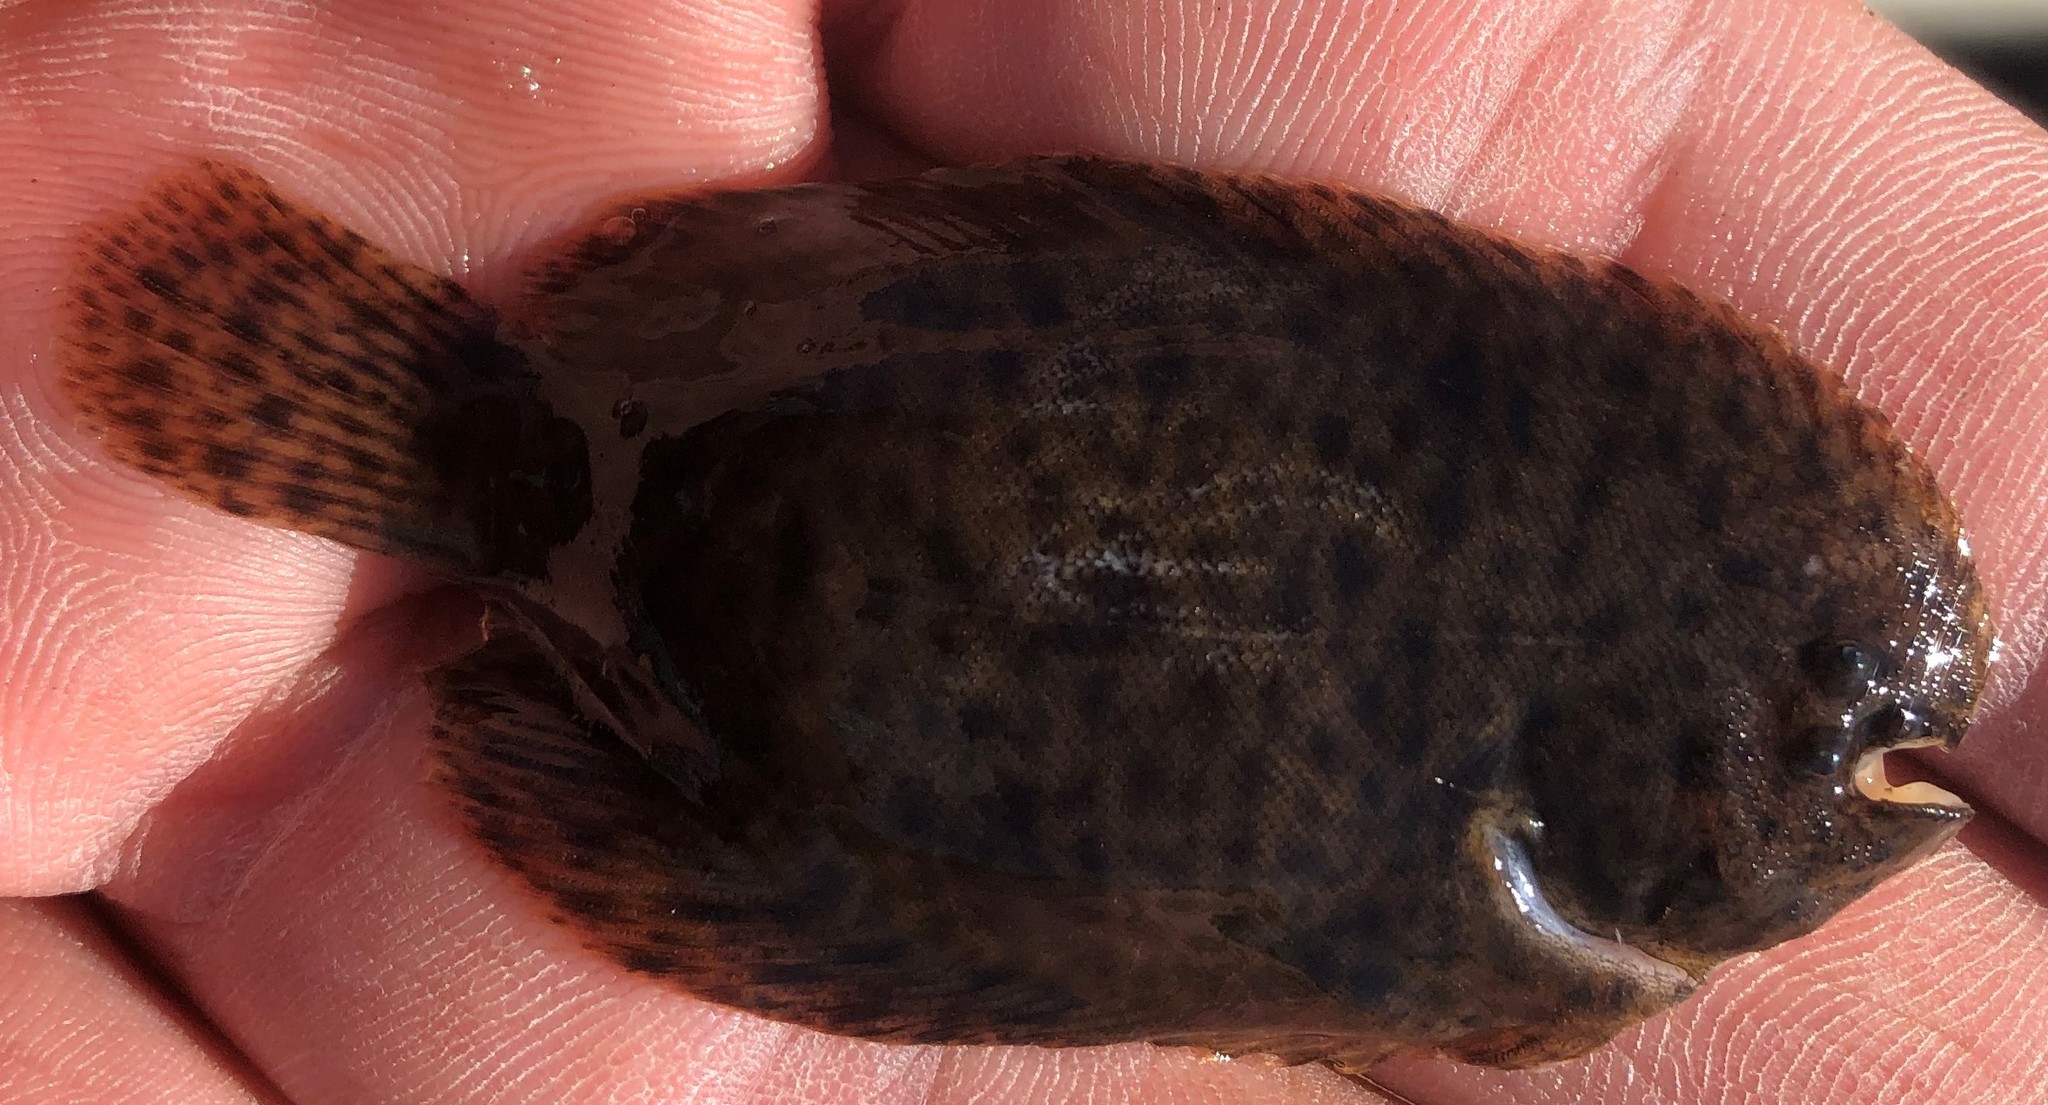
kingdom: Animalia
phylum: Chordata
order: Pleuronectiformes
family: Achiridae
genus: Trinectes
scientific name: Trinectes maculatus
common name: Hogchoker
